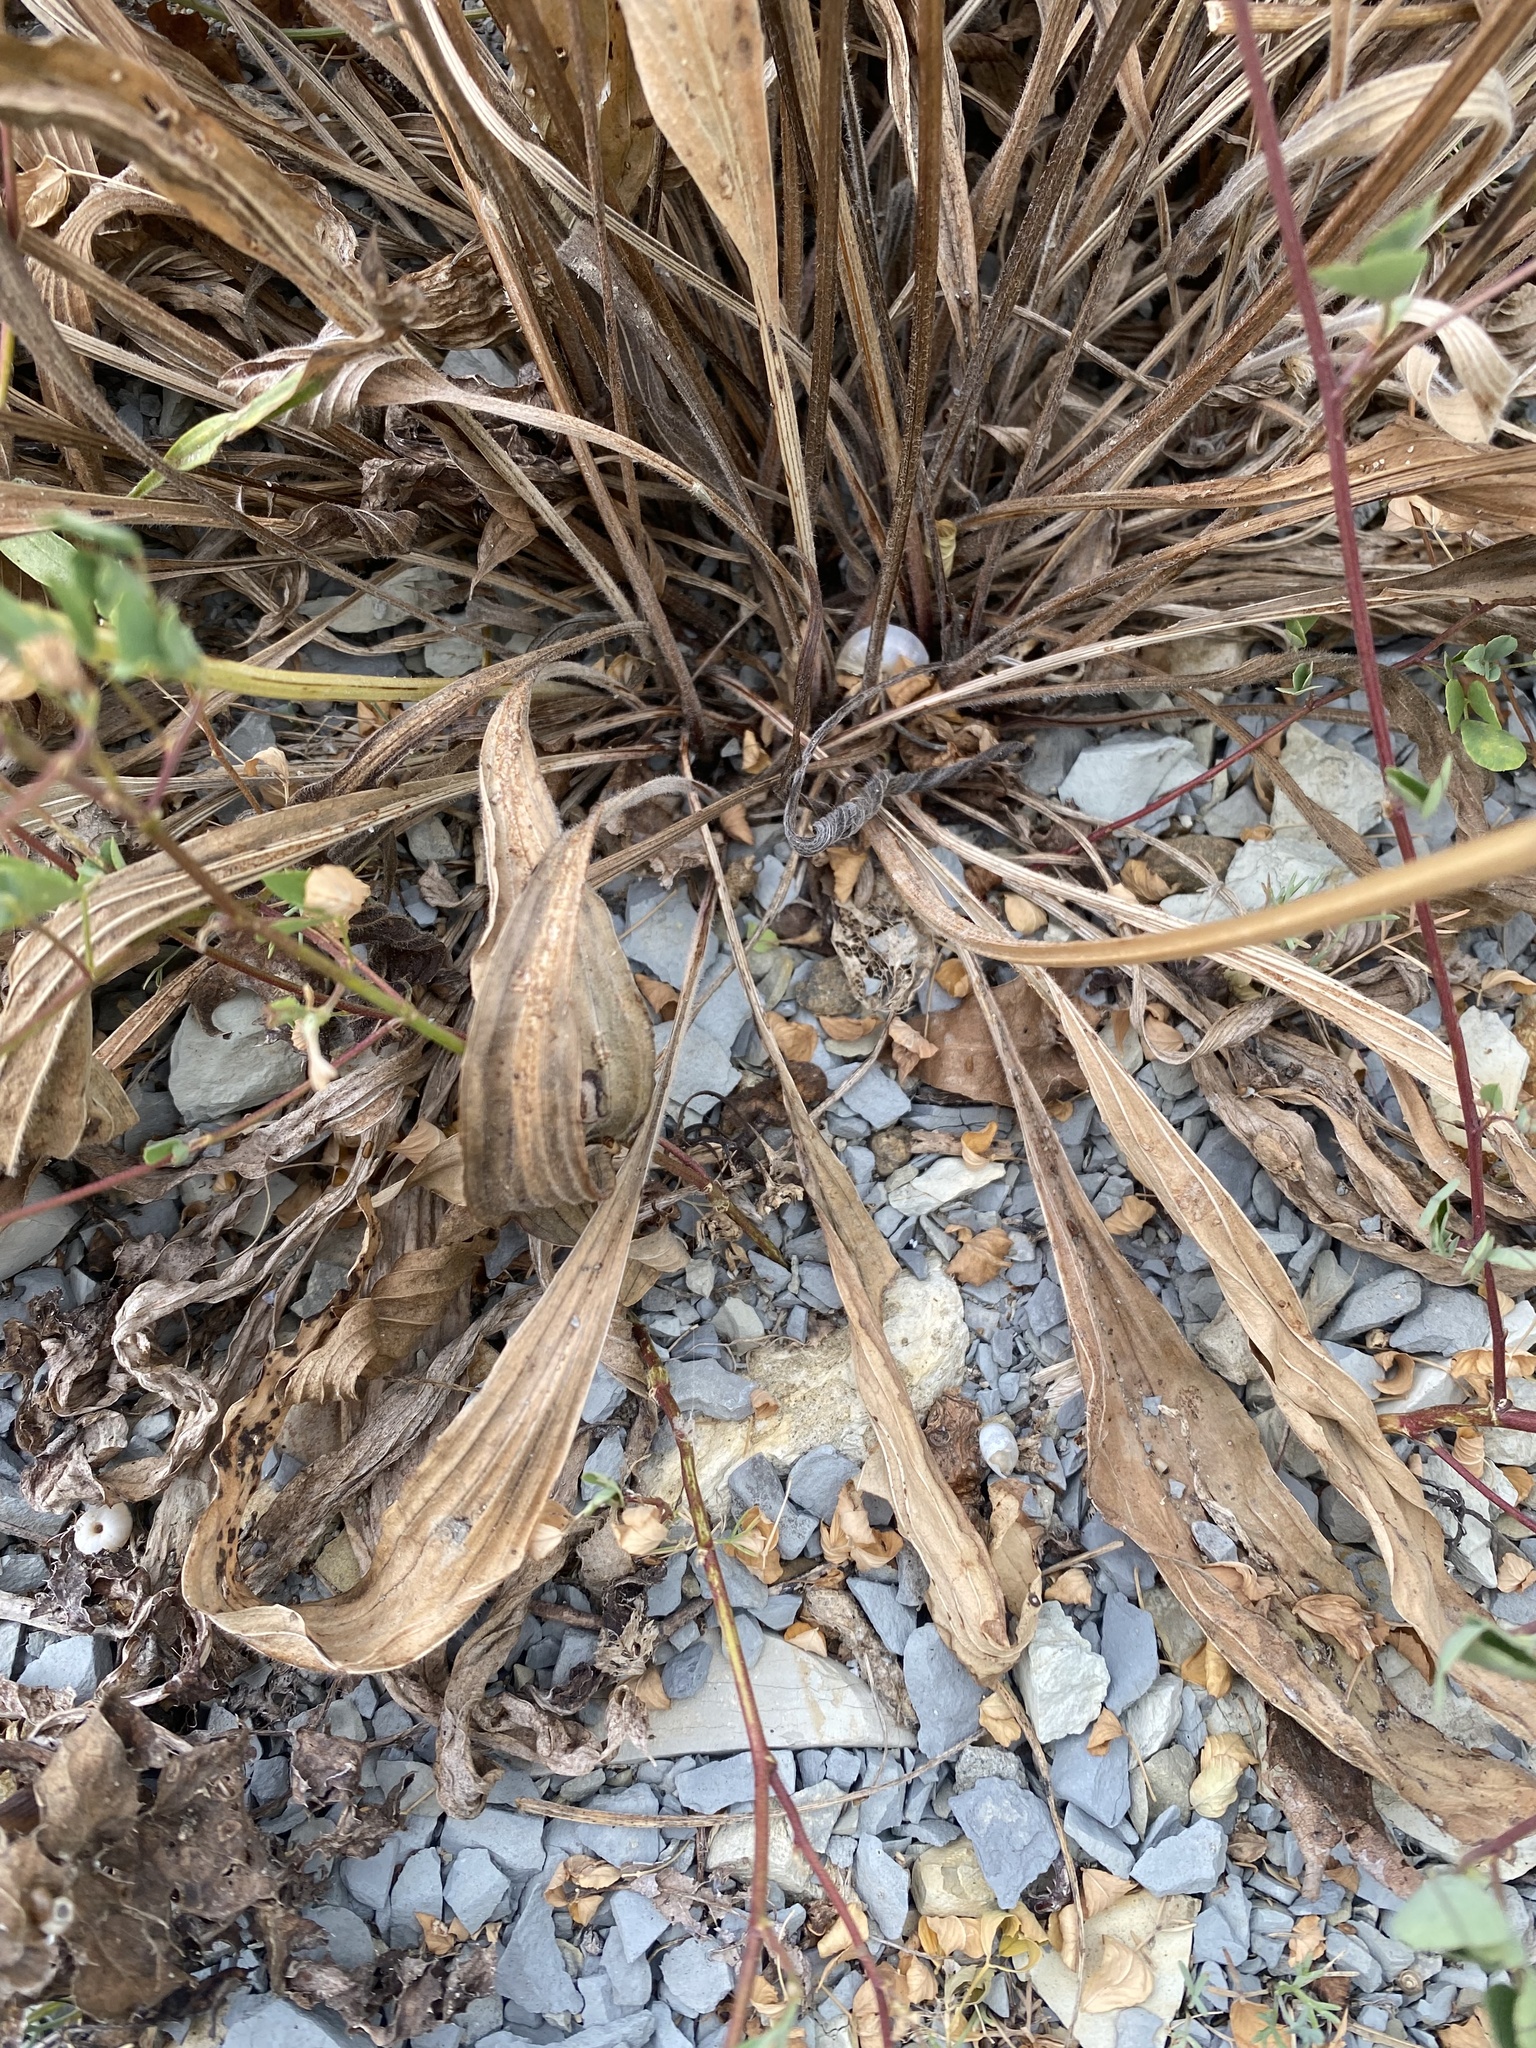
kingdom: Plantae
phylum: Tracheophyta
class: Magnoliopsida
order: Lamiales
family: Plantaginaceae
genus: Plantago
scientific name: Plantago lanceolata
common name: Ribwort plantain
